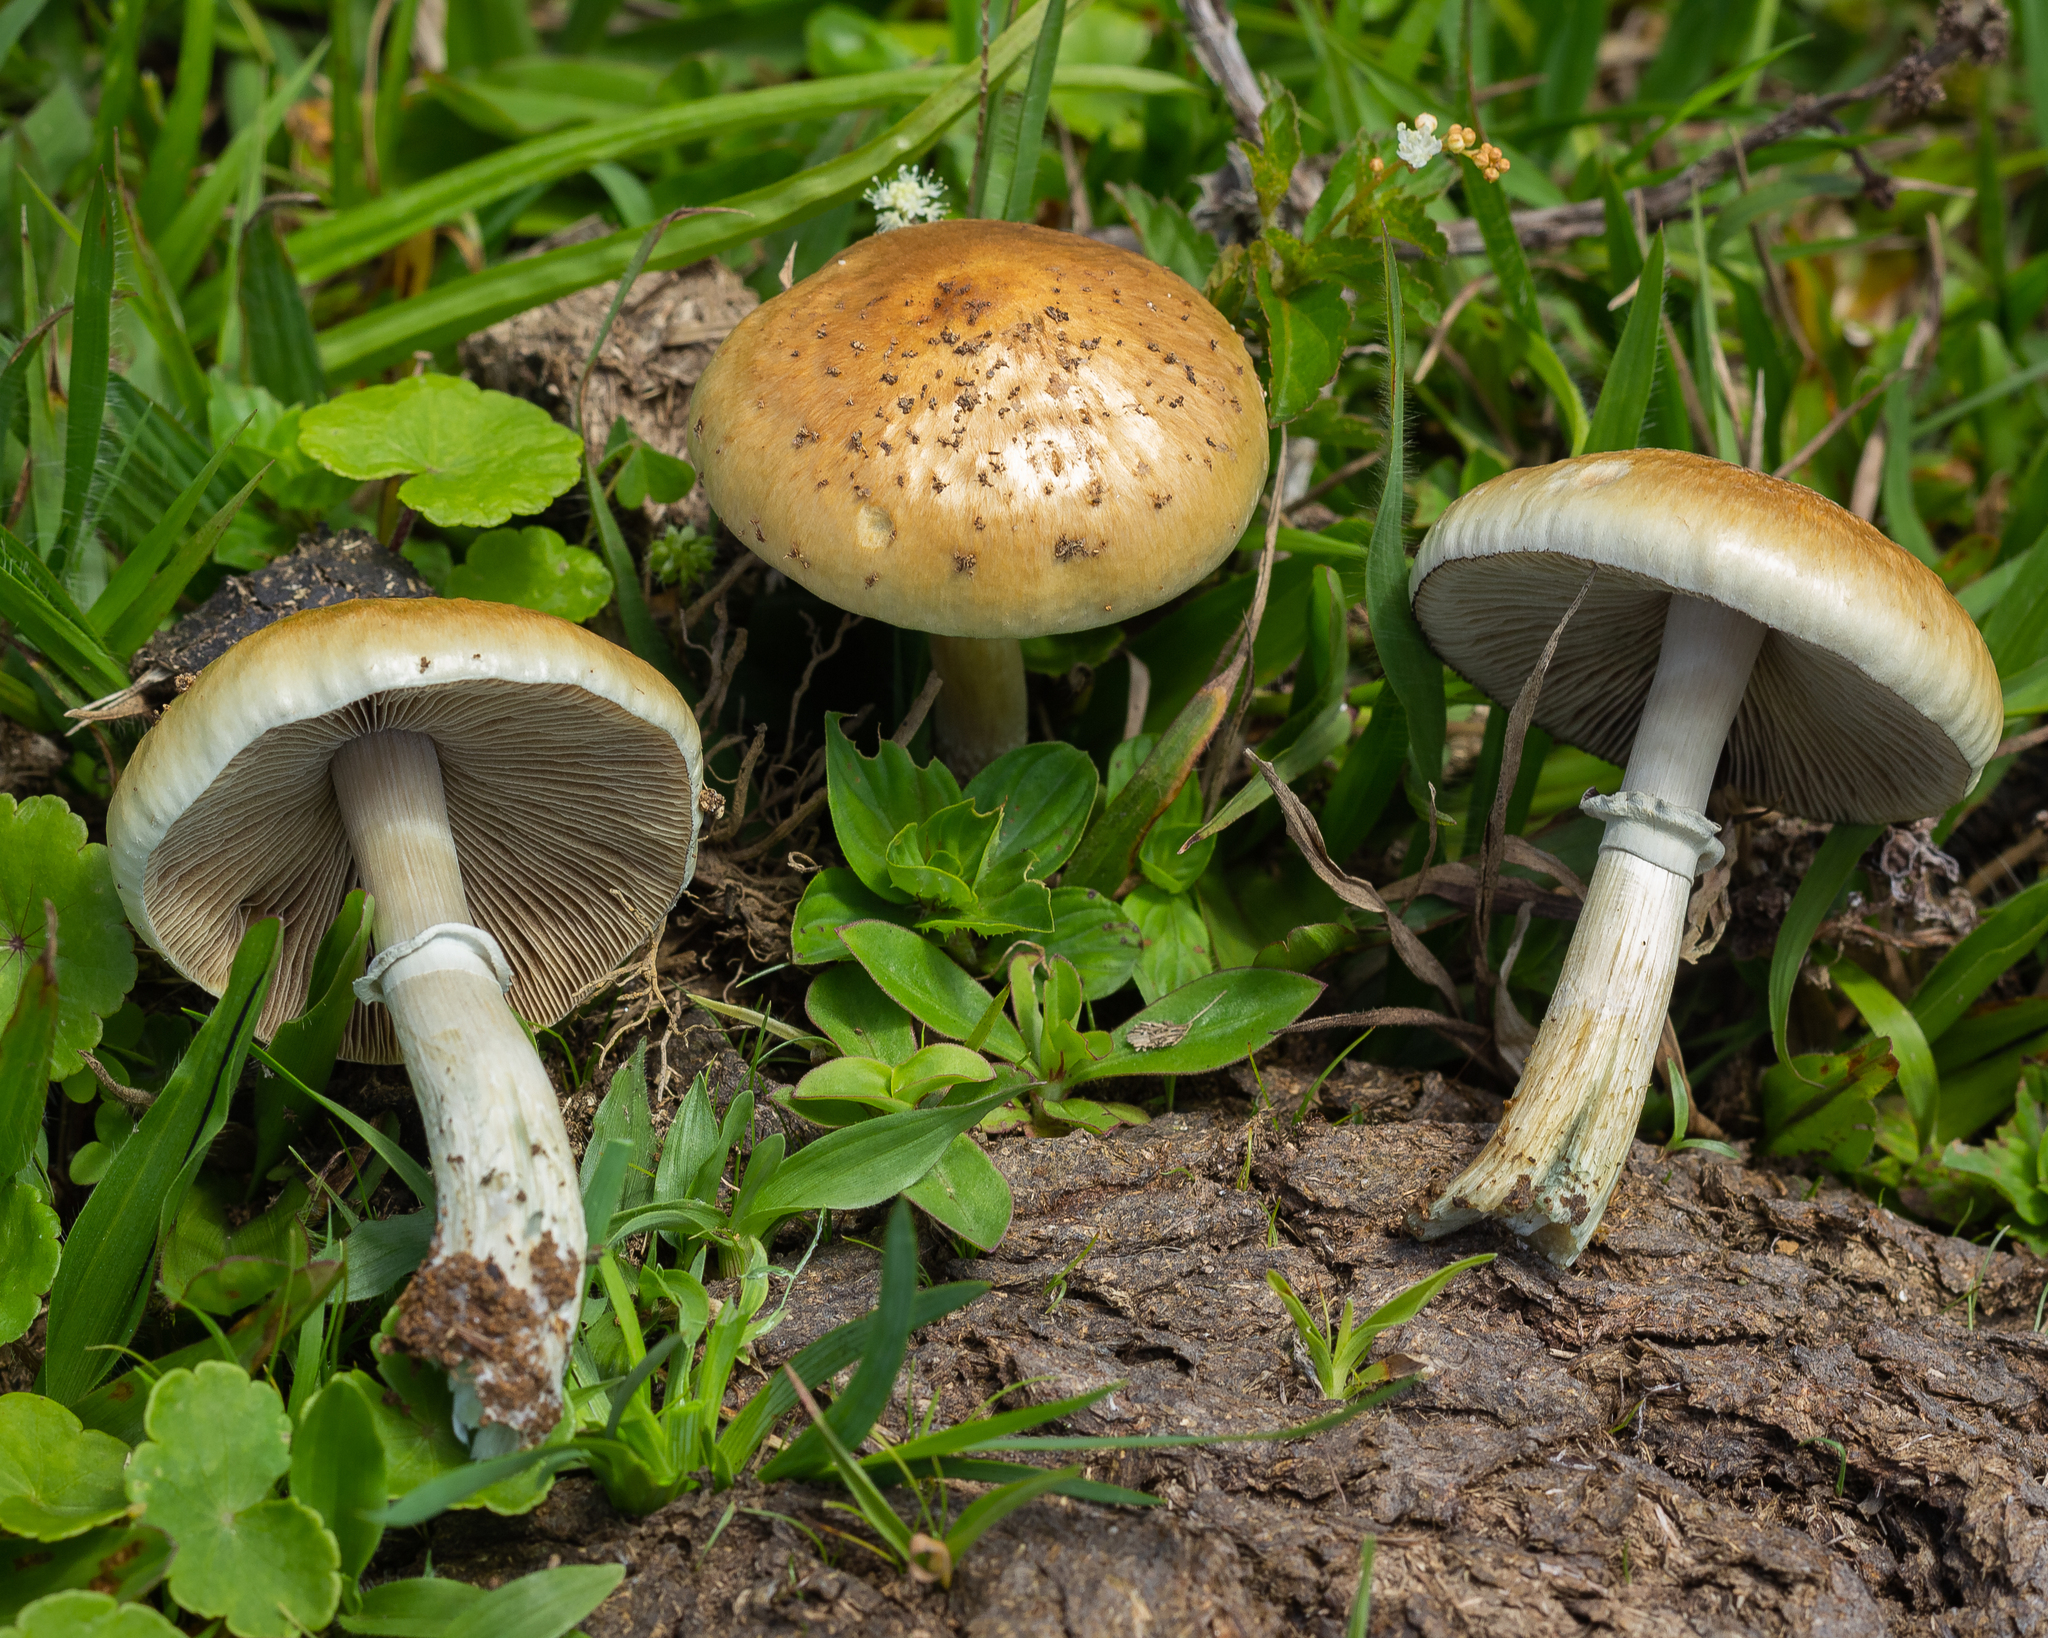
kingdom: Fungi
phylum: Basidiomycota
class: Agaricomycetes
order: Agaricales
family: Hymenogastraceae
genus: Psilocybe
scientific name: Psilocybe cubensis
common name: Golden brownie
